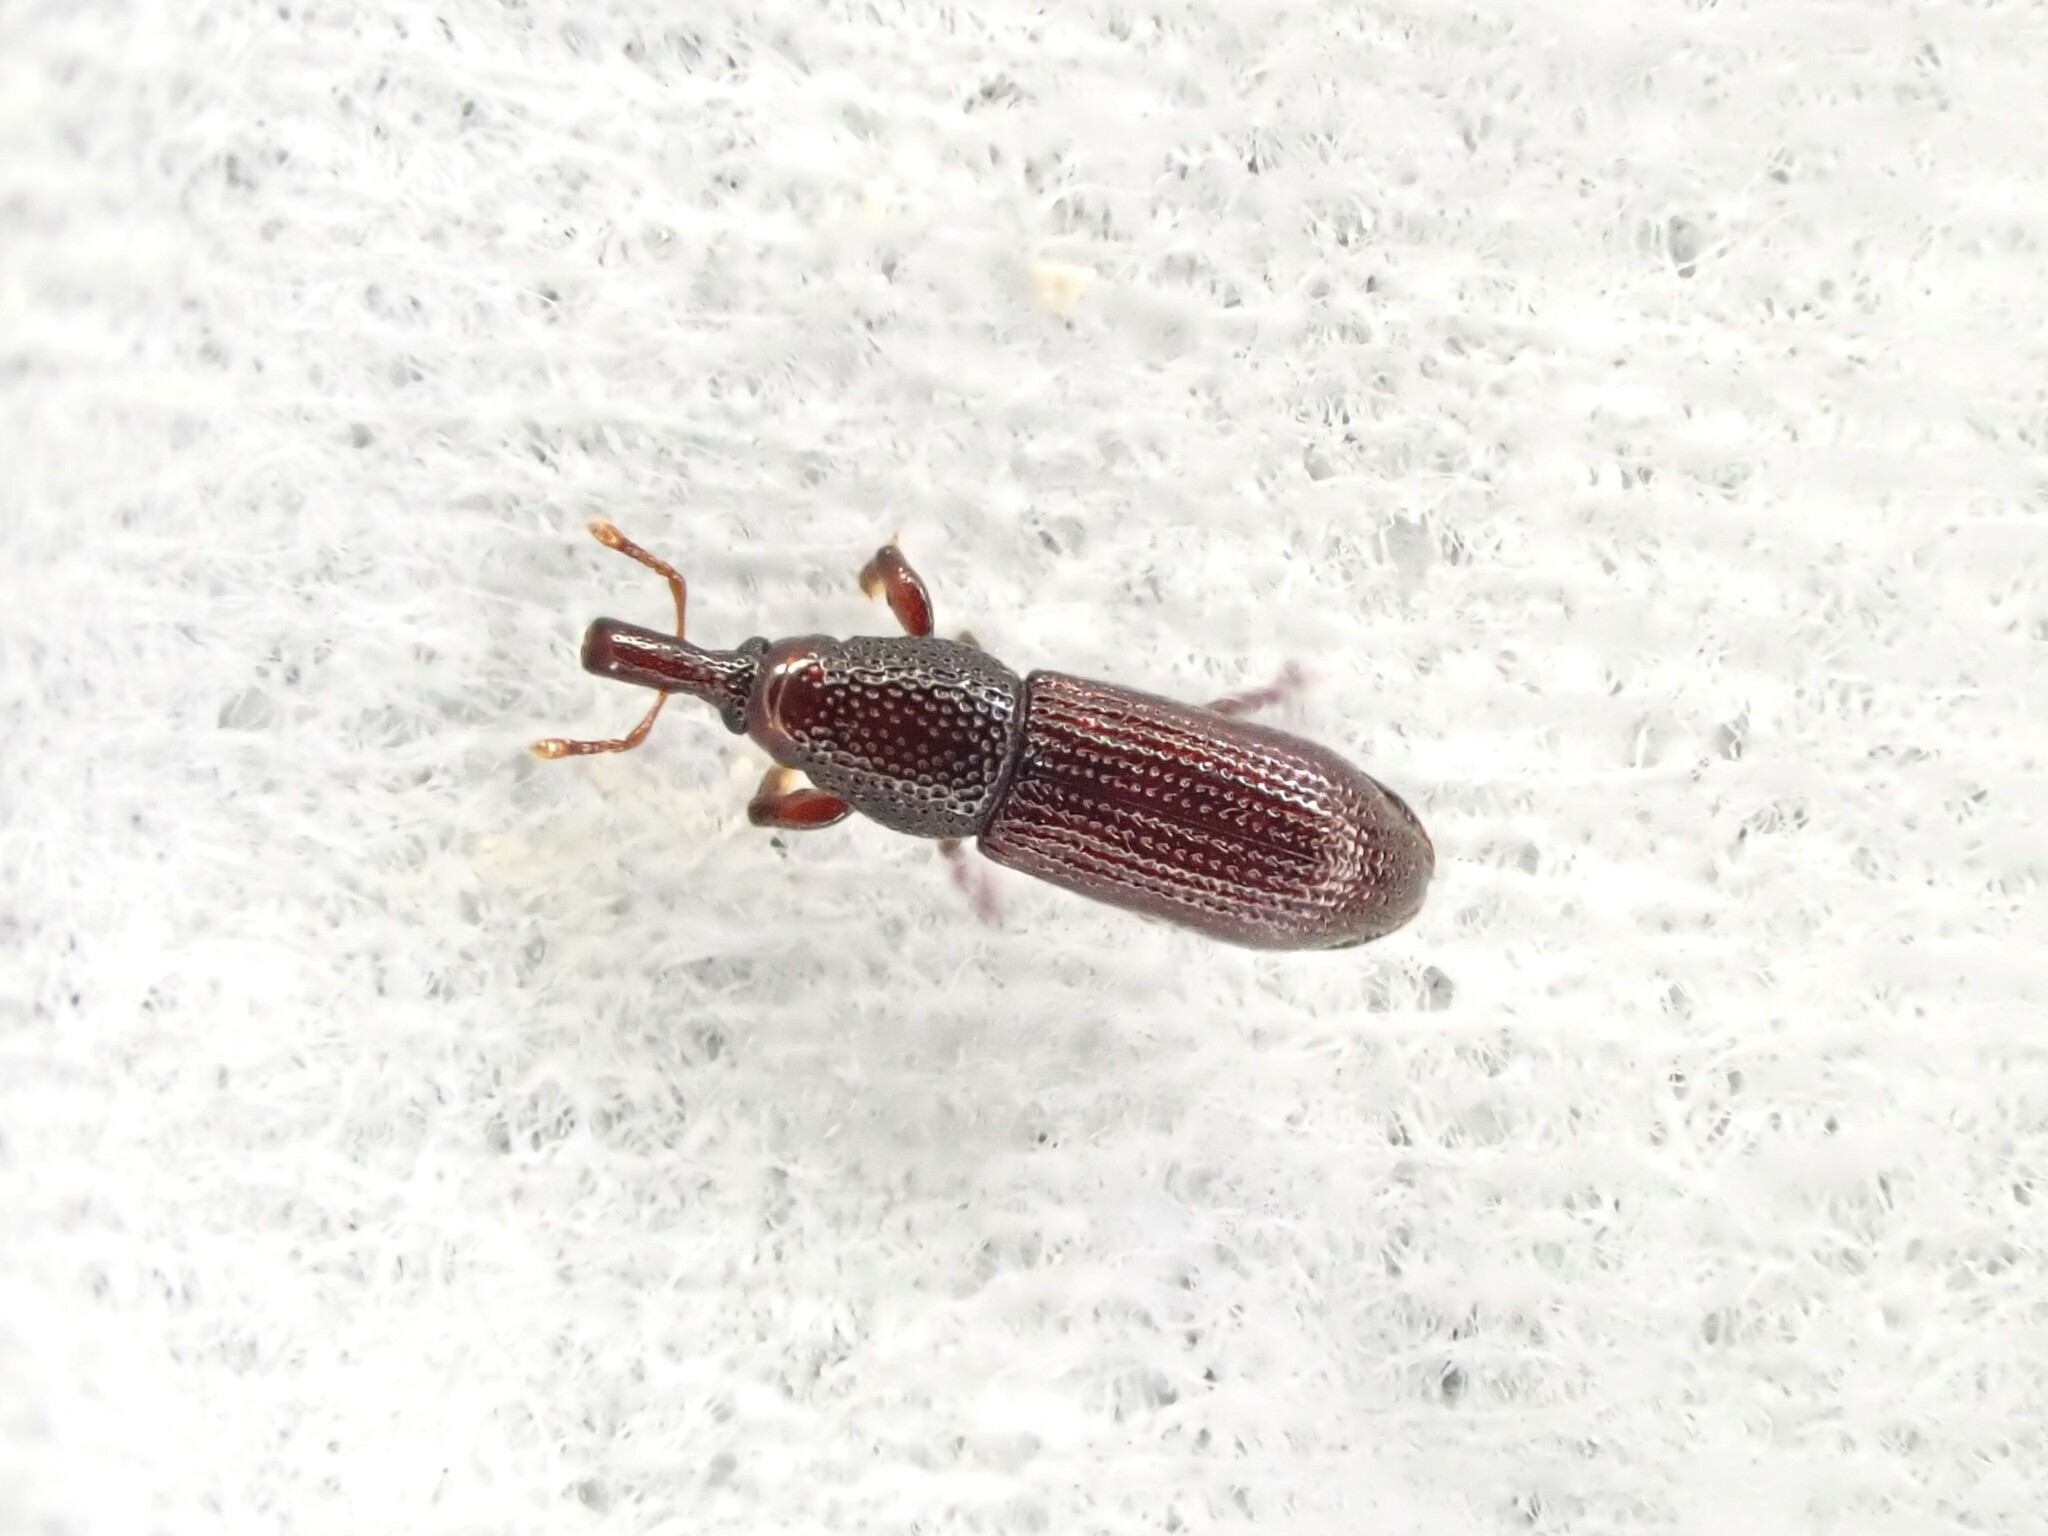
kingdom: Animalia
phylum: Arthropoda
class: Insecta
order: Coleoptera
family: Curculionidae
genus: Pentarthrum
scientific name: Pentarthrum confine
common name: Weevil
